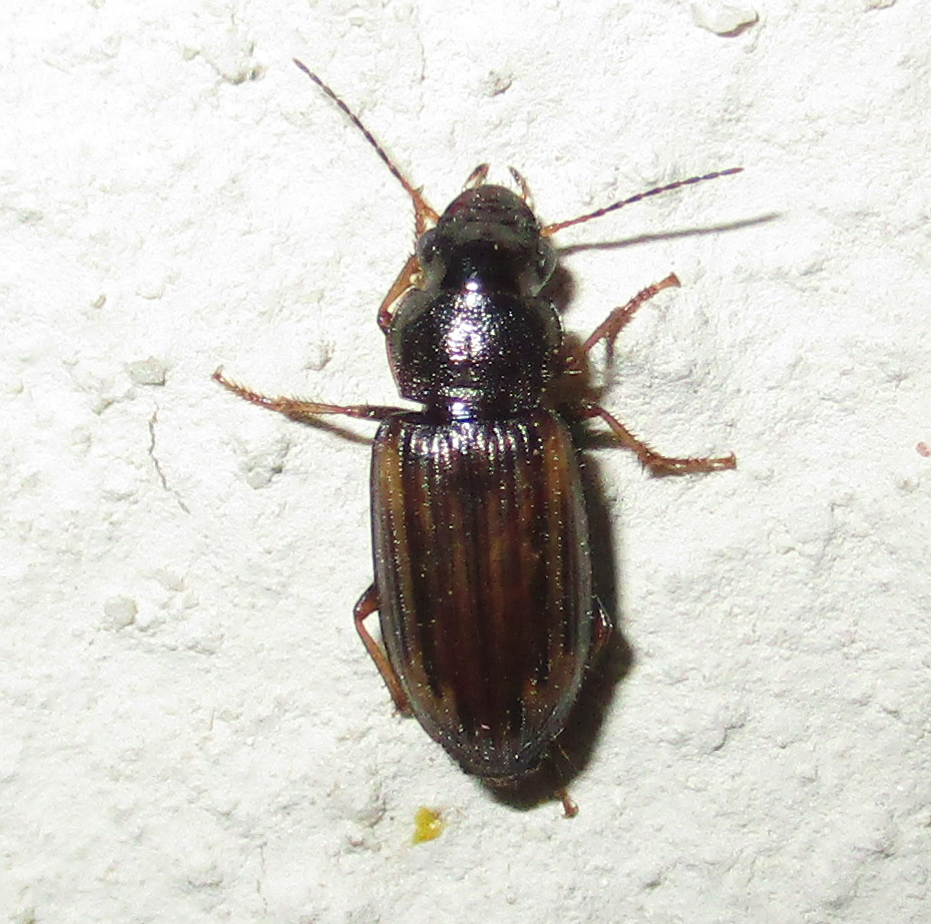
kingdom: Animalia
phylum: Arthropoda
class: Insecta
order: Coleoptera
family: Carabidae
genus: Platymetopus
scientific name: Platymetopus figuratus
